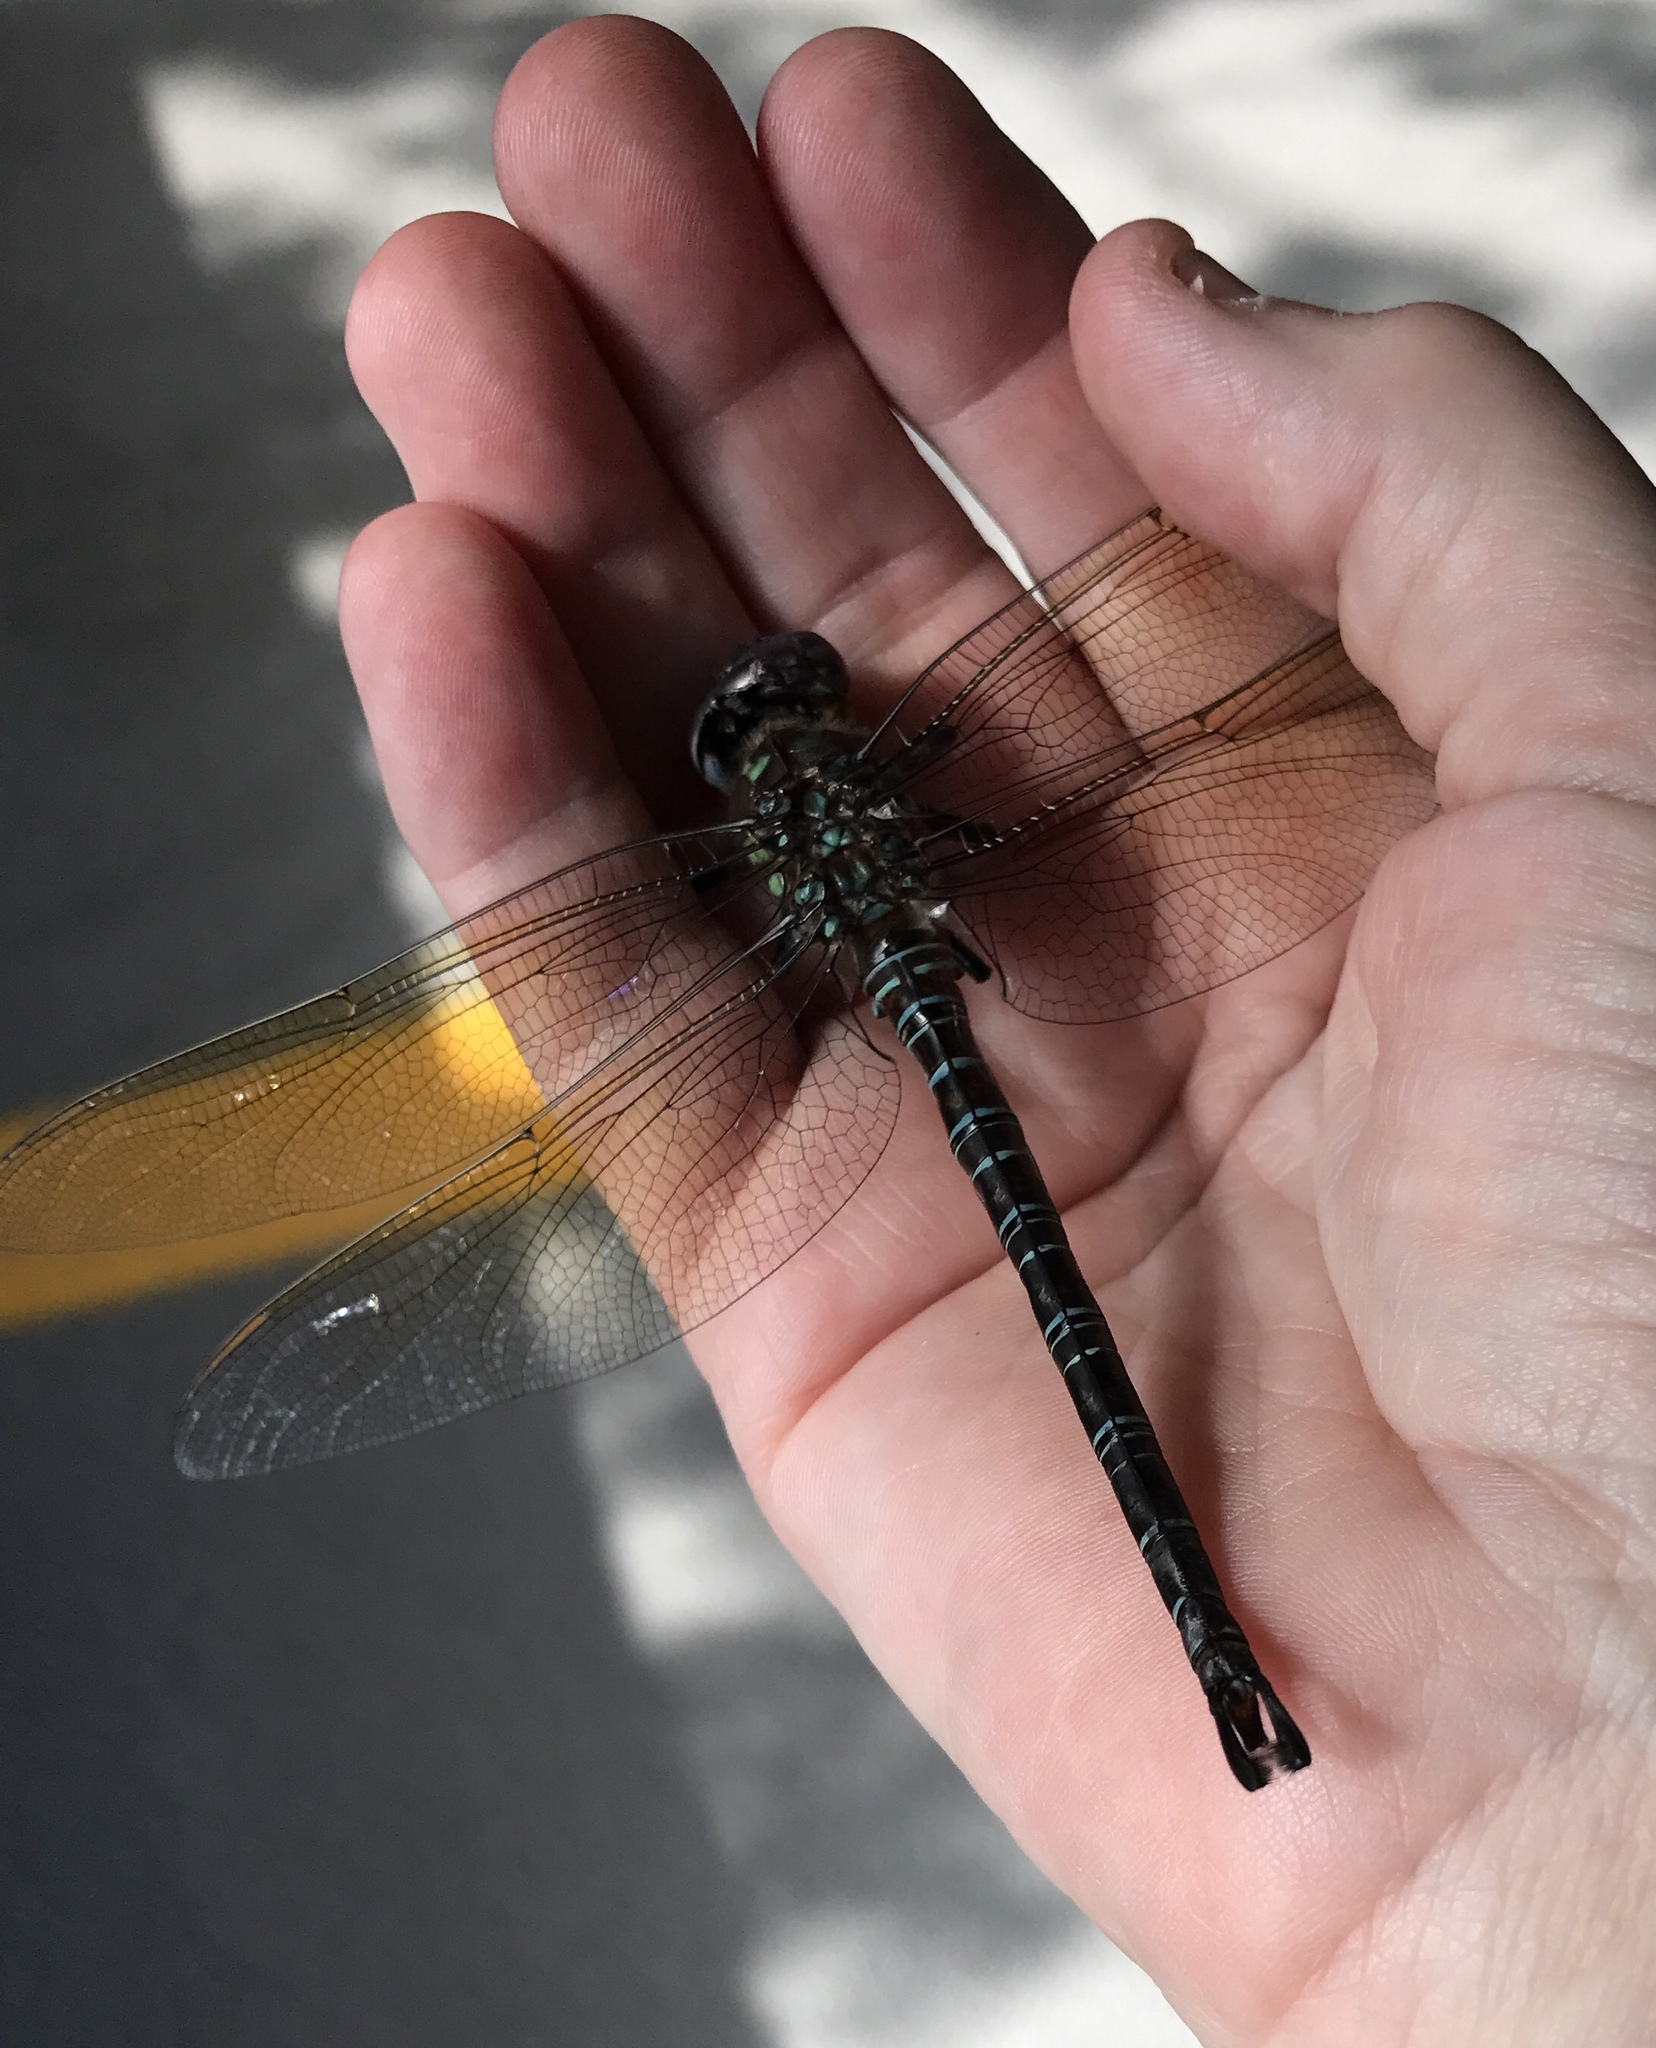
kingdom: Animalia
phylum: Arthropoda
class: Insecta
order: Odonata
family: Aeshnidae
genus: Epiaeschna
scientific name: Epiaeschna heros
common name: Swamp darner
